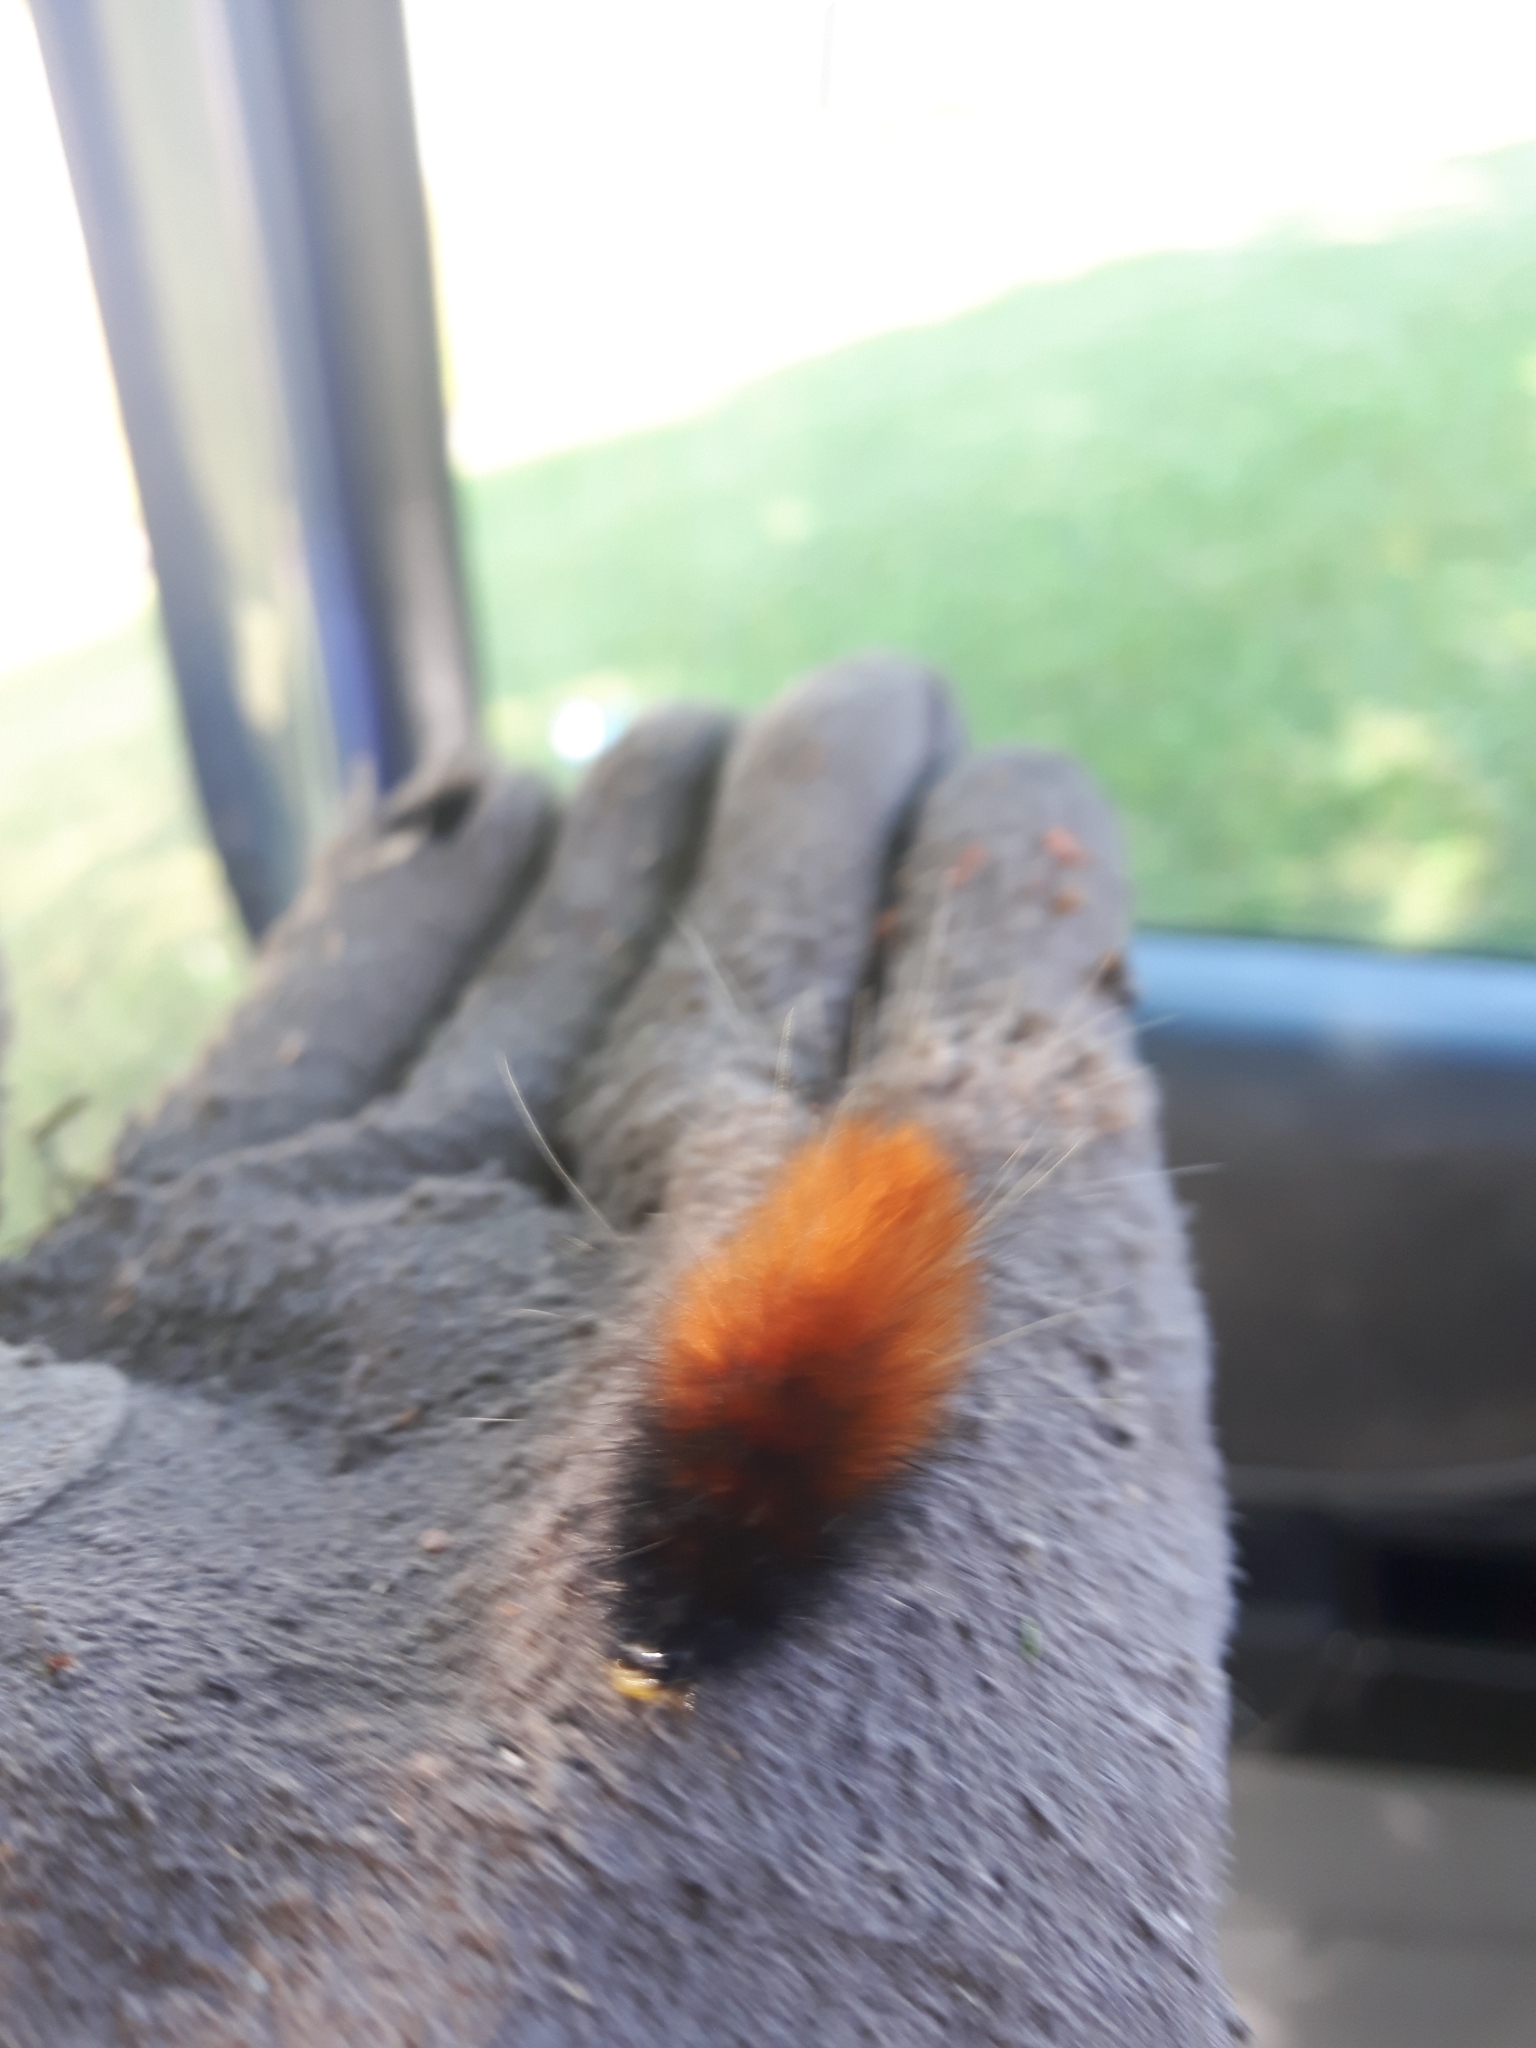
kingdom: Animalia
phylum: Arthropoda
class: Insecta
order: Lepidoptera
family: Erebidae
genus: Spilosoma
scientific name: Spilosoma virginica
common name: Virginia tiger moth
